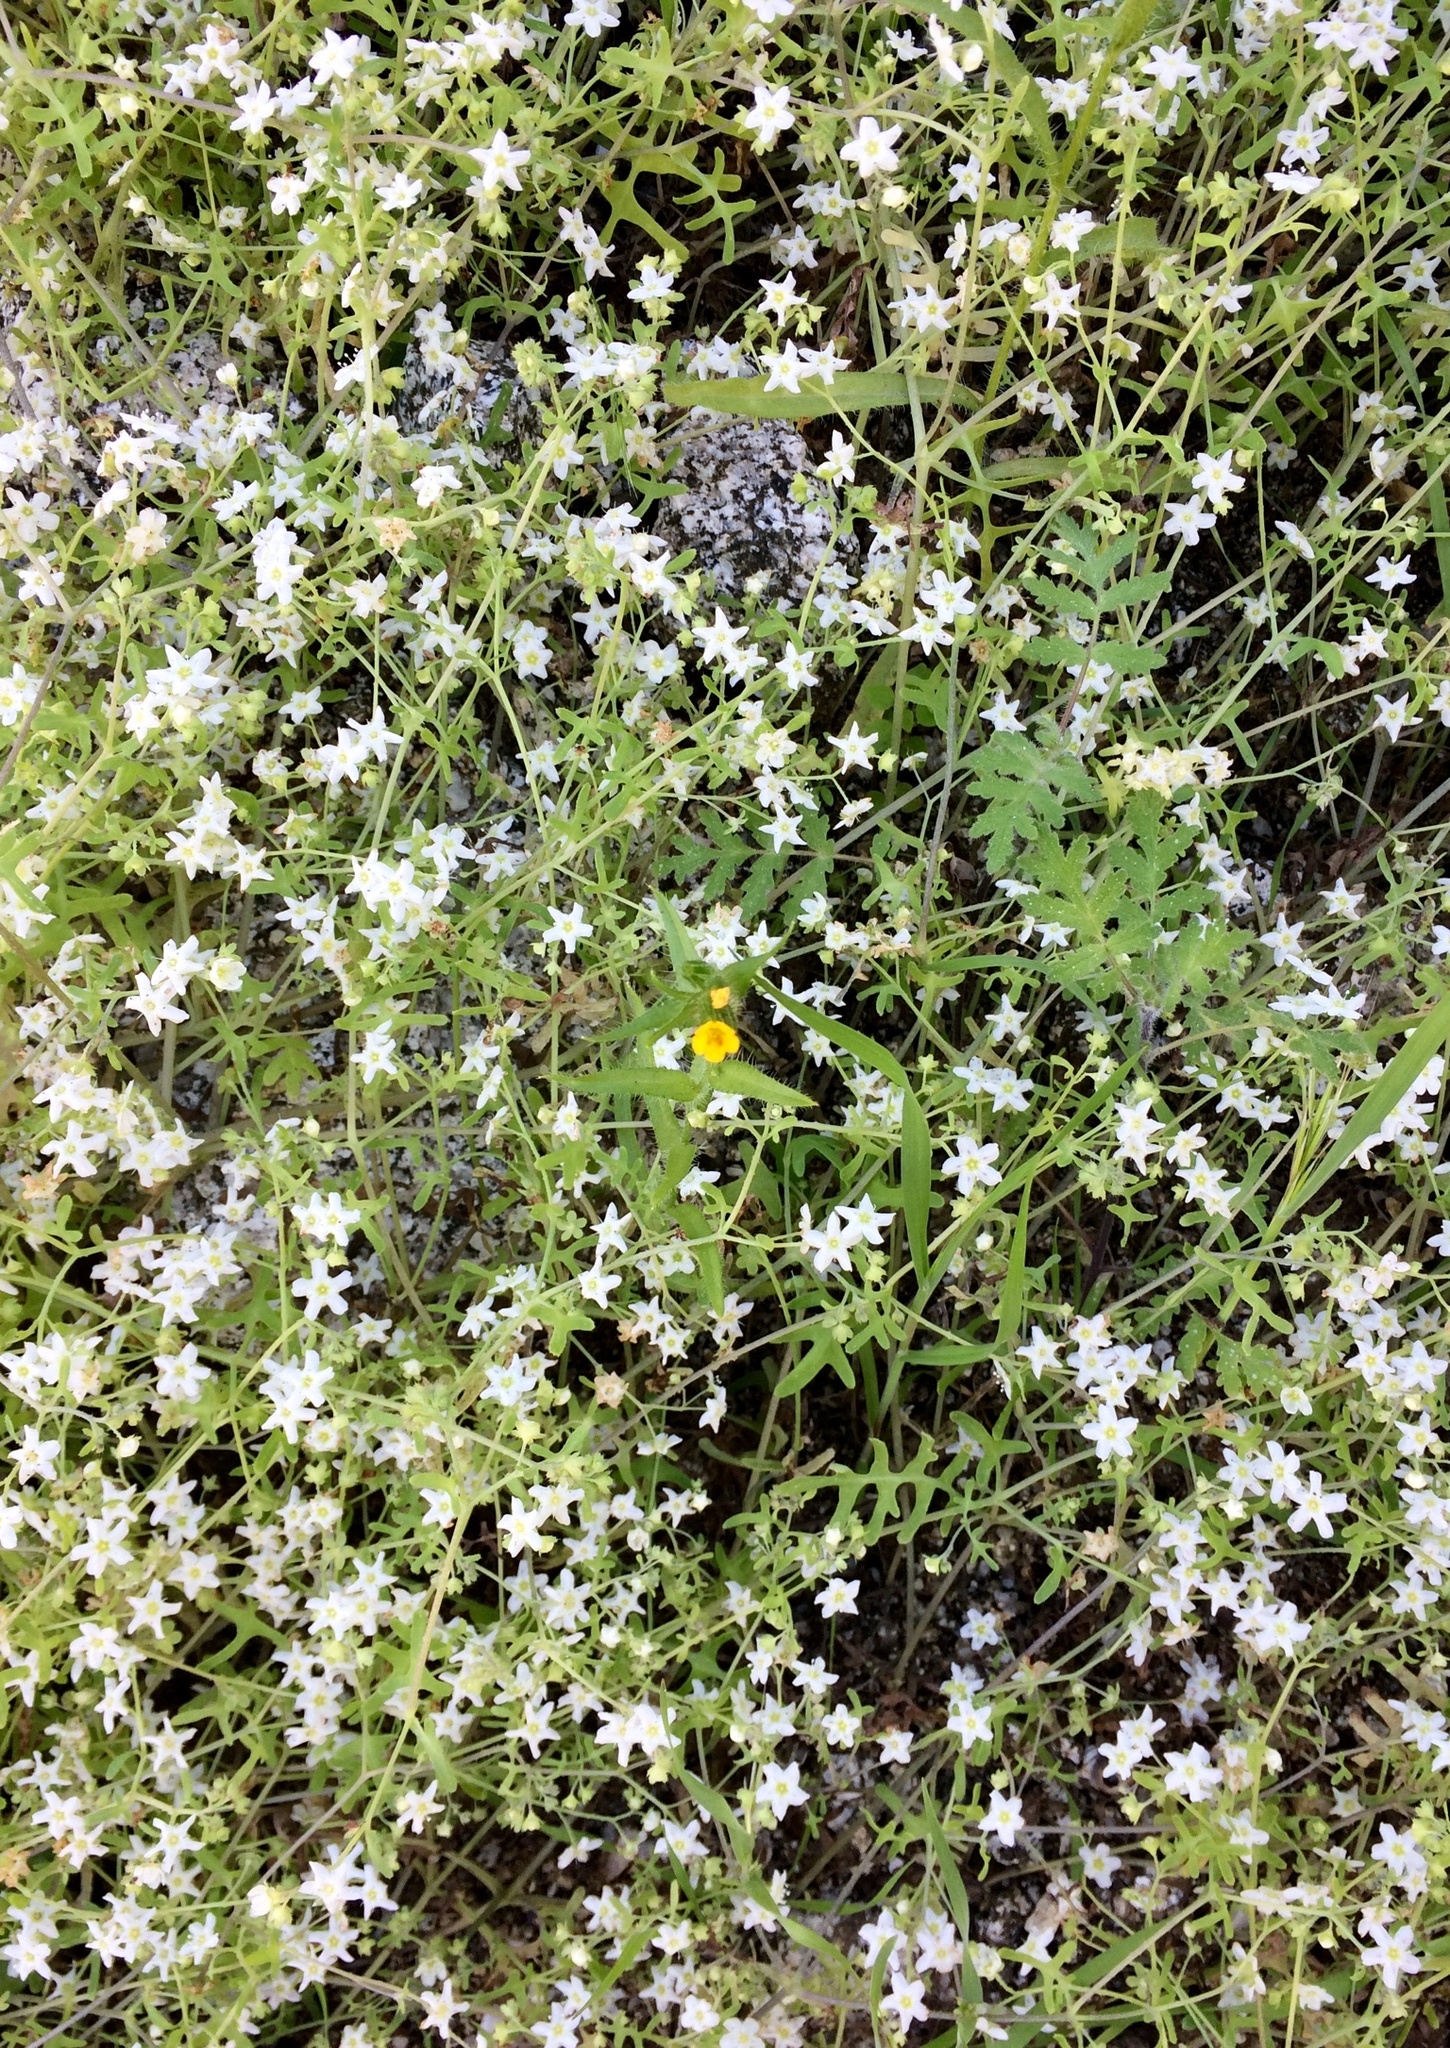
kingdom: Plantae
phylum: Tracheophyta
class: Magnoliopsida
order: Boraginales
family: Hydrophyllaceae
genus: Pholistoma
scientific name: Pholistoma membranaceum
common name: White fiesta-flower
